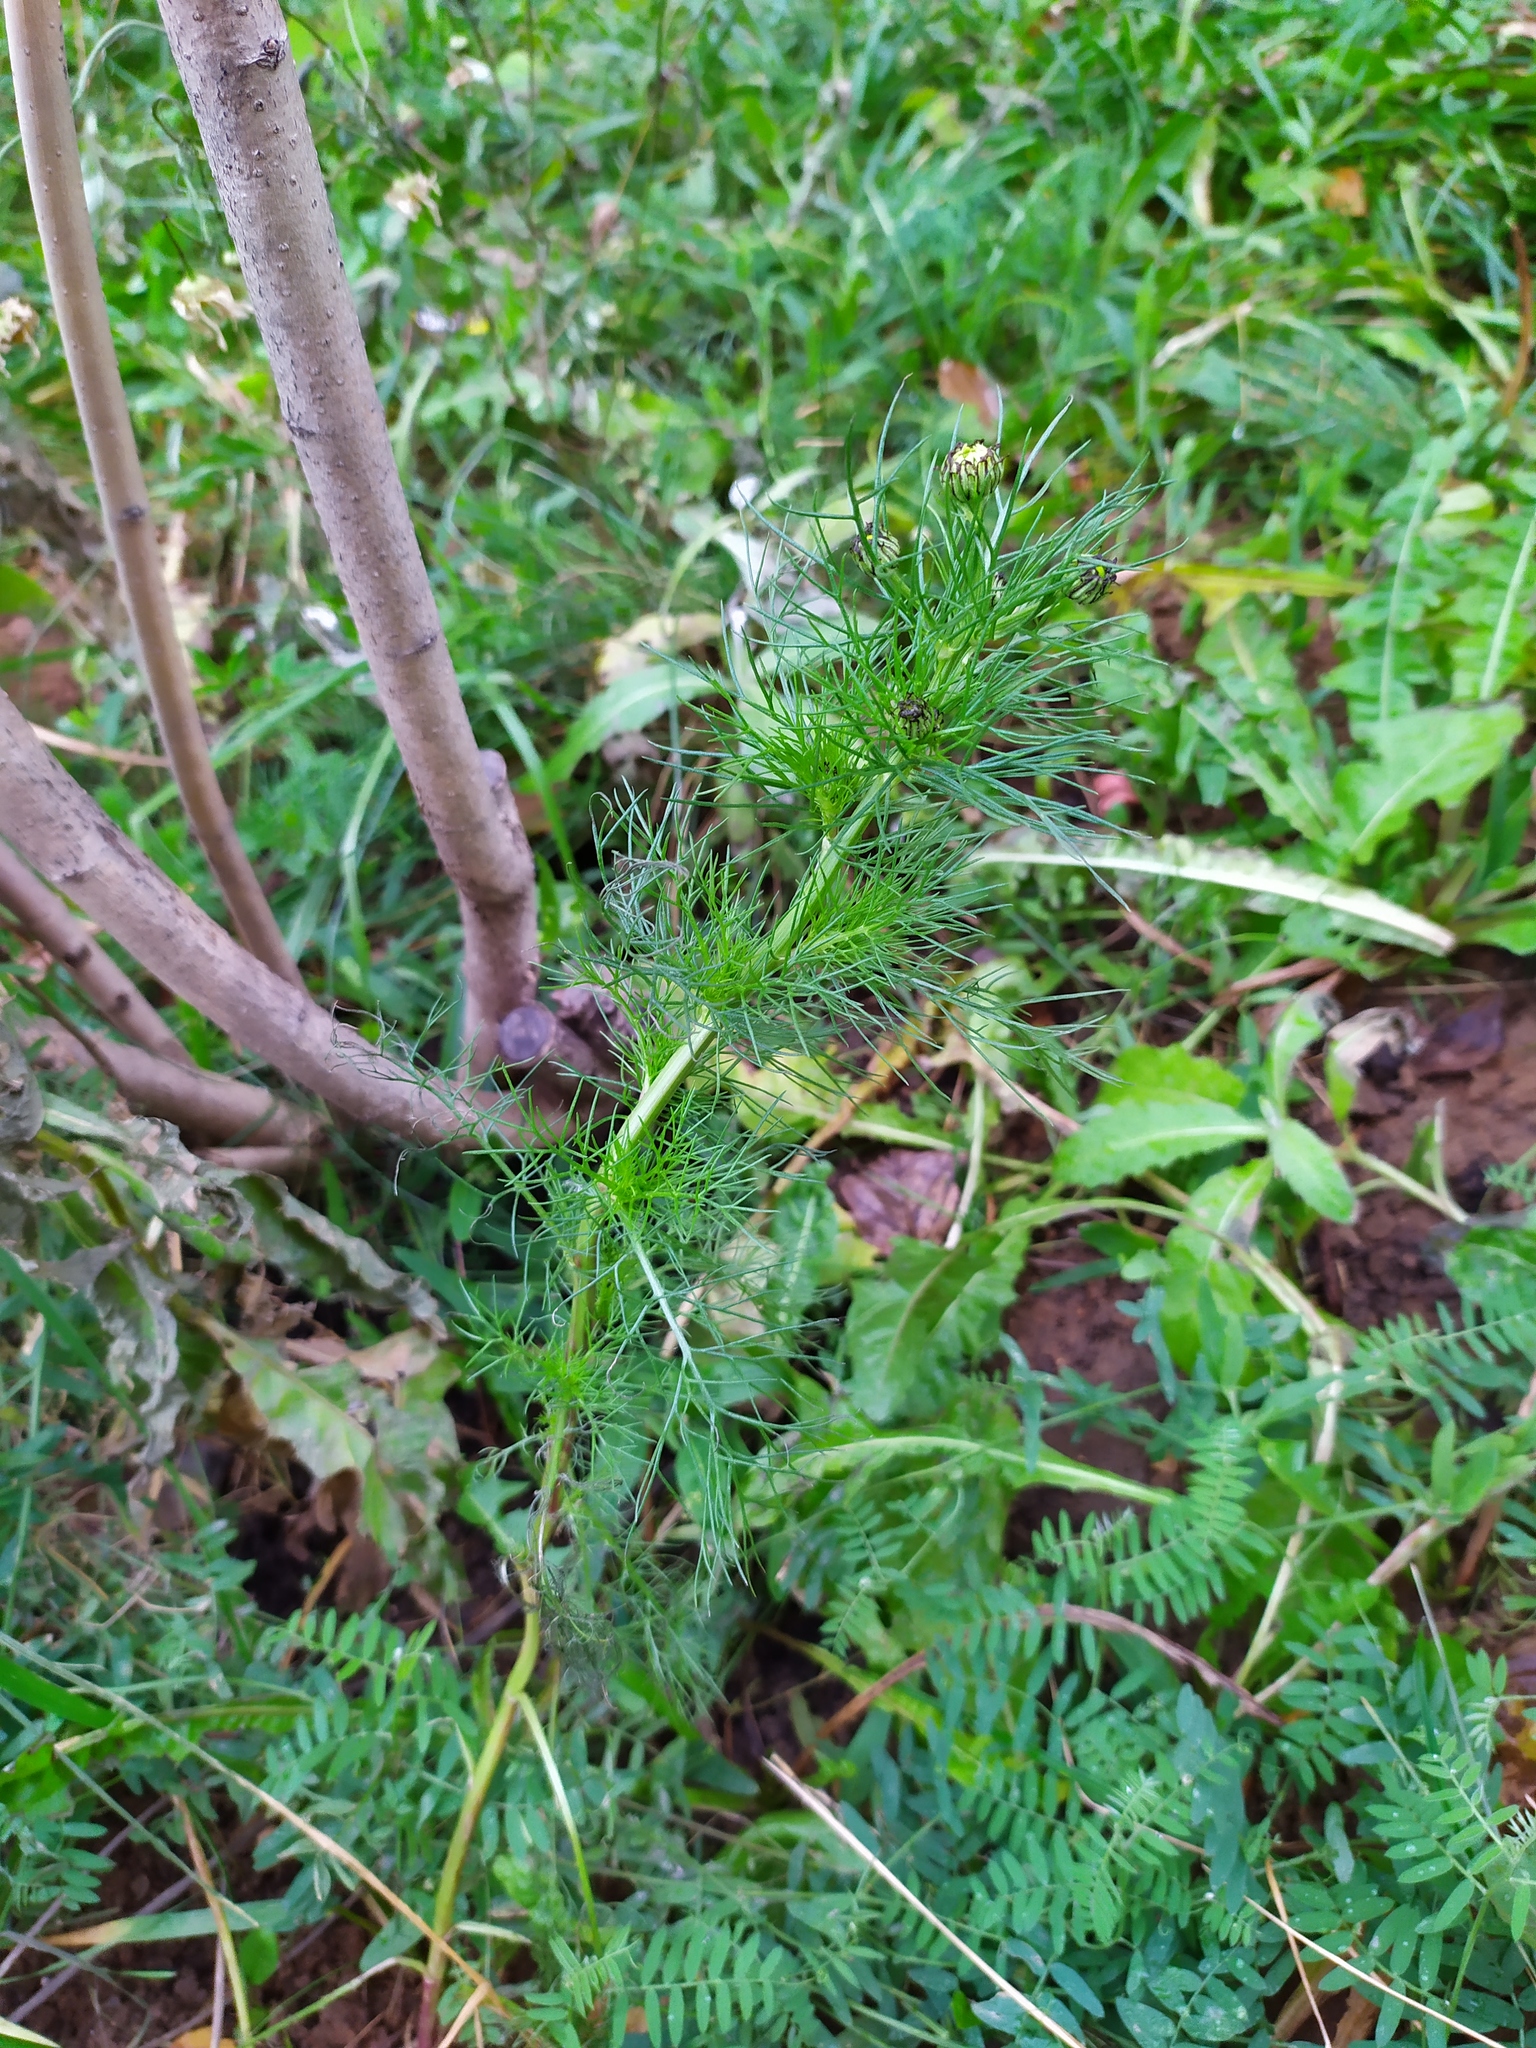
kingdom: Plantae
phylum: Tracheophyta
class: Magnoliopsida
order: Asterales
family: Asteraceae
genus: Tripleurospermum
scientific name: Tripleurospermum inodorum
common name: Scentless mayweed
